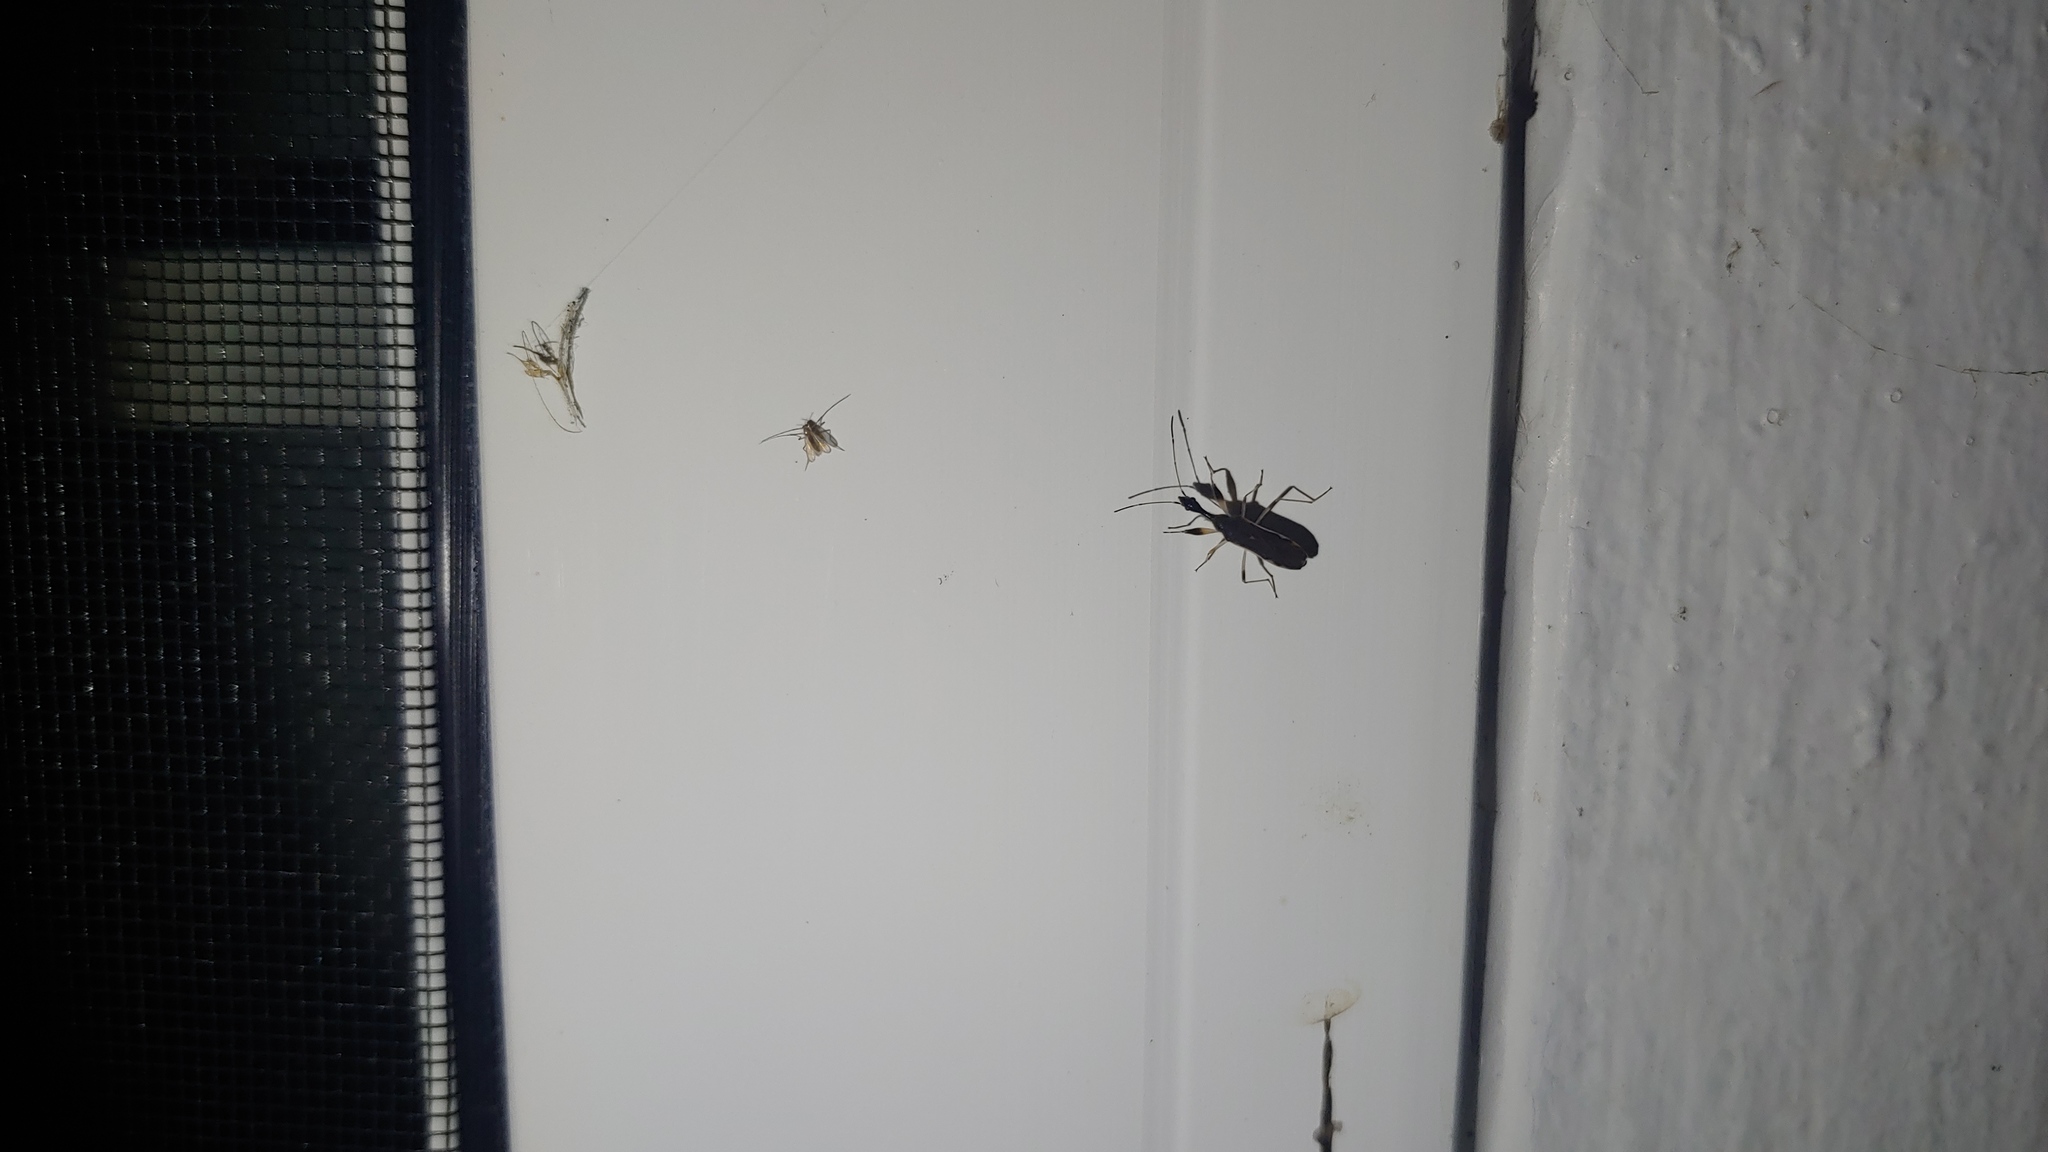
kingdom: Animalia
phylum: Arthropoda
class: Insecta
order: Hemiptera
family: Rhyparochromidae
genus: Myodocha
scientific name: Myodocha serripes
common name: Long-necked seed bug
